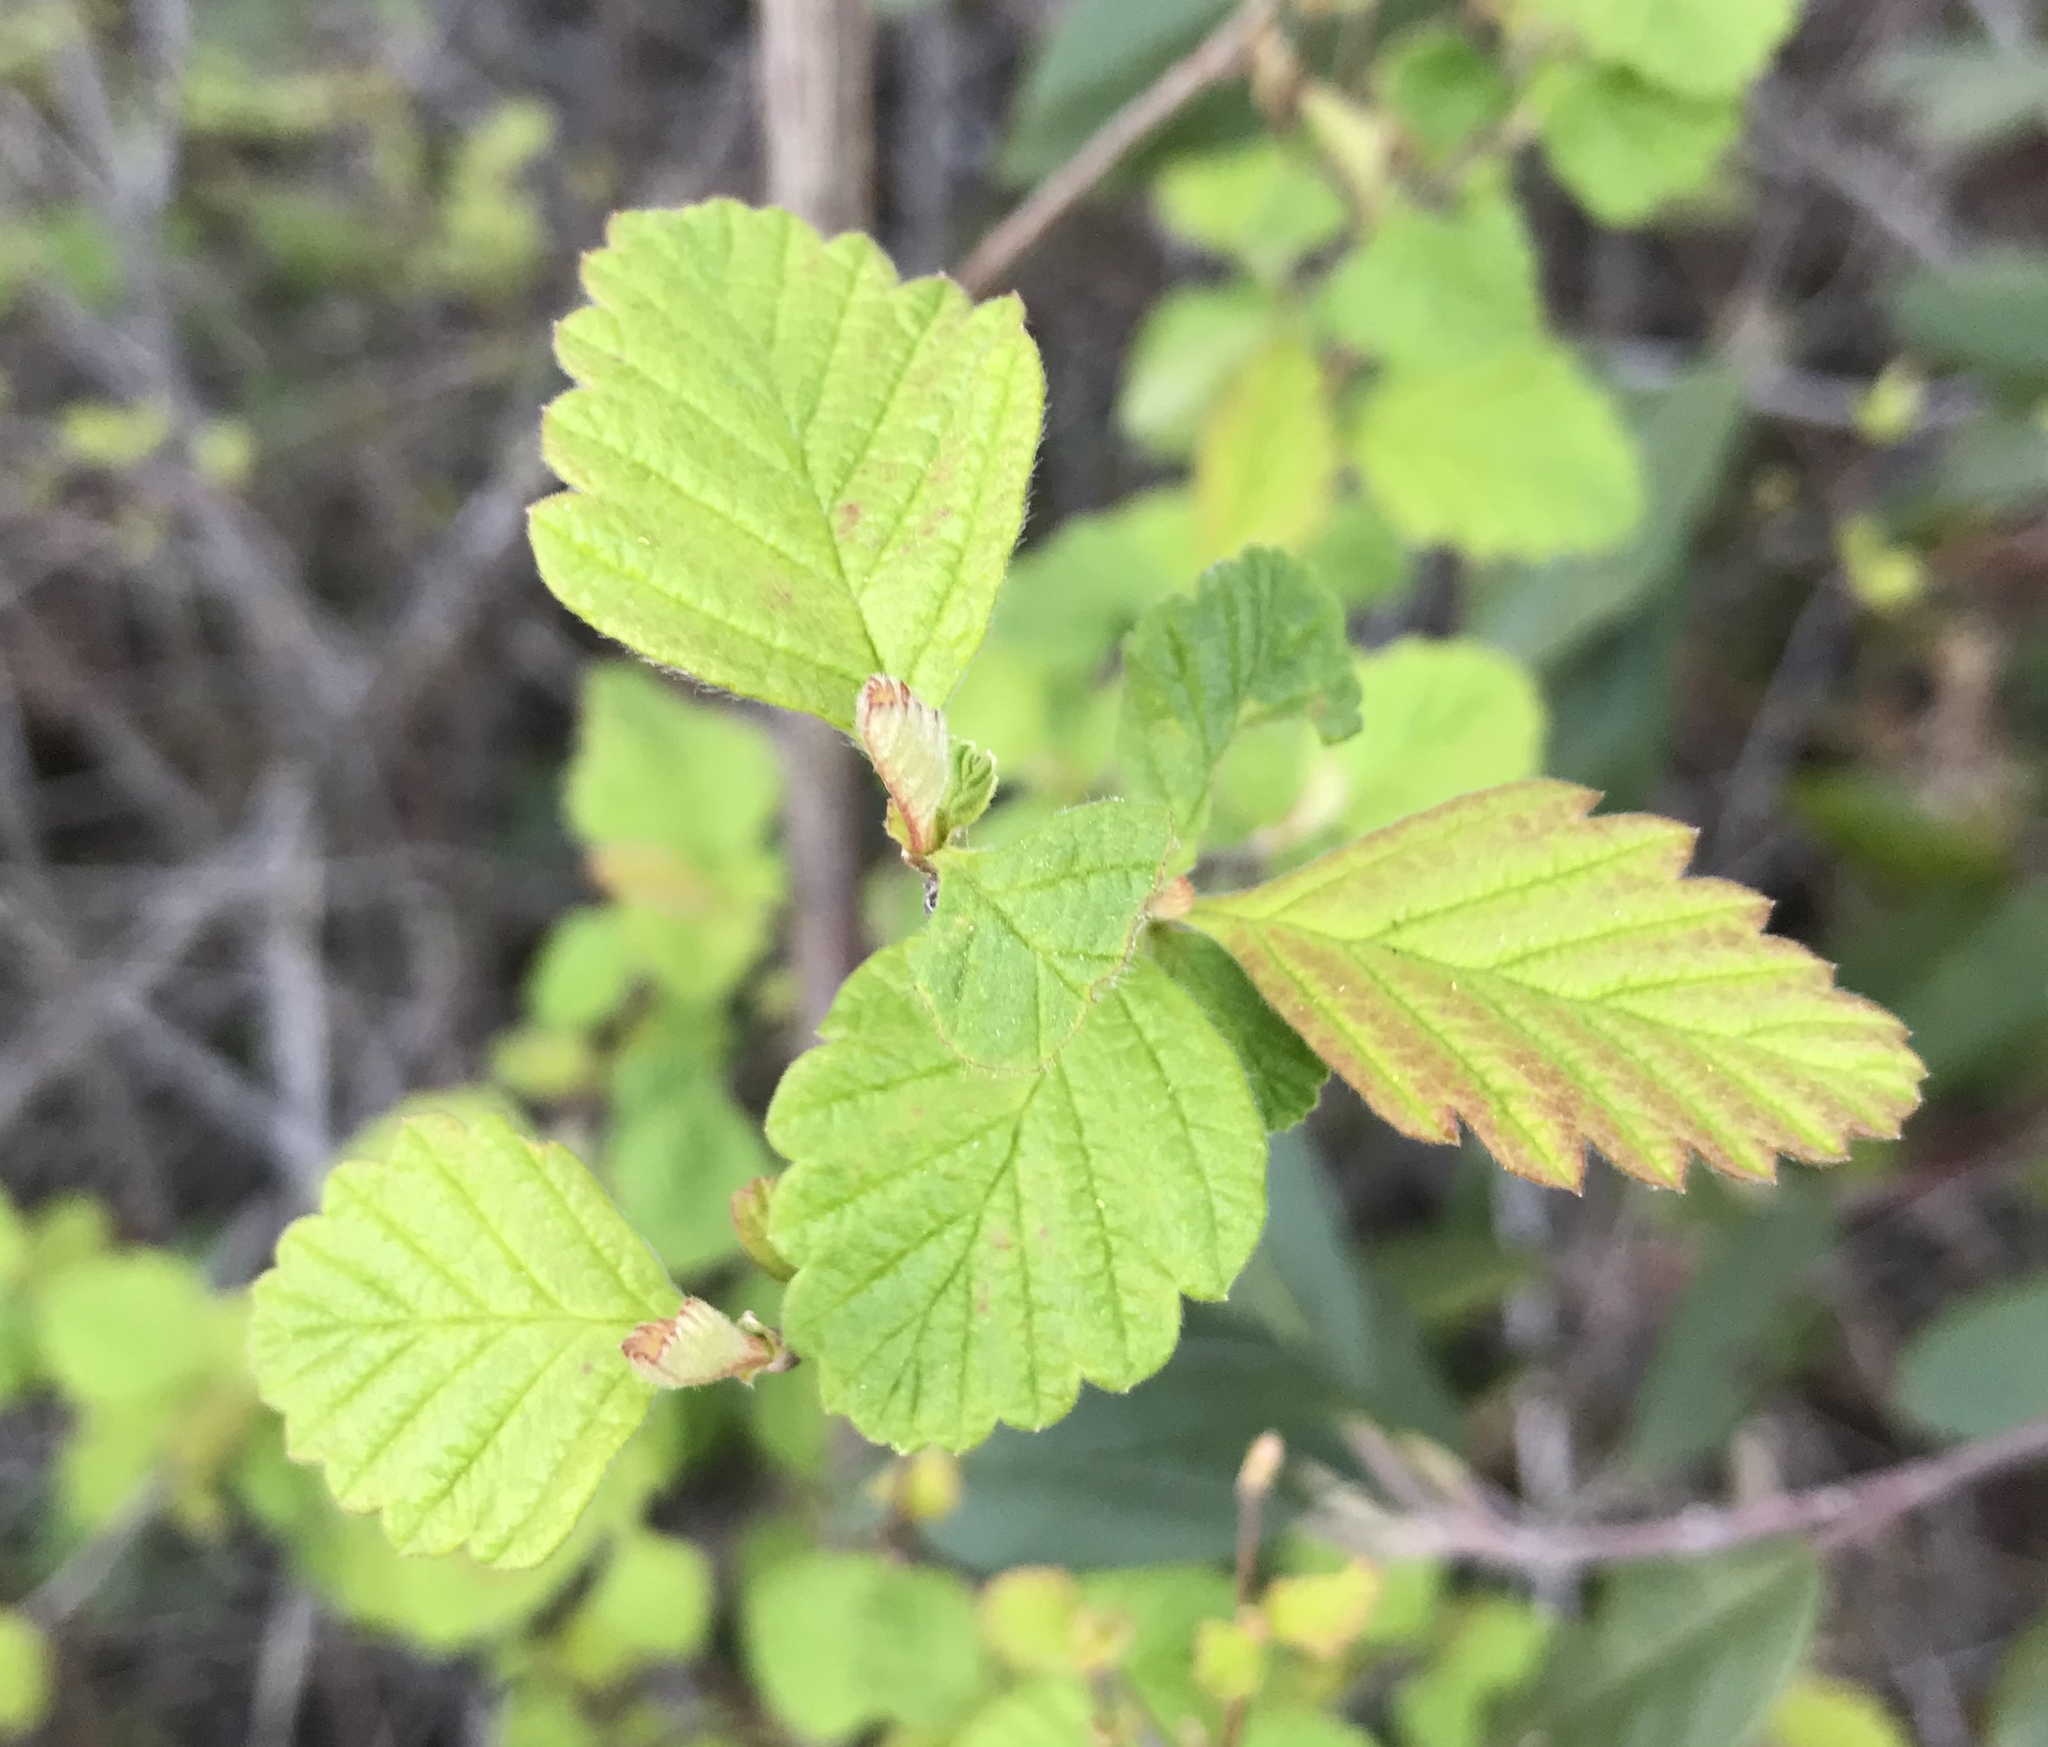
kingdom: Plantae
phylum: Tracheophyta
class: Magnoliopsida
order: Rosales
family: Rosaceae
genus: Holodiscus
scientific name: Holodiscus discolor
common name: Oceanspray
